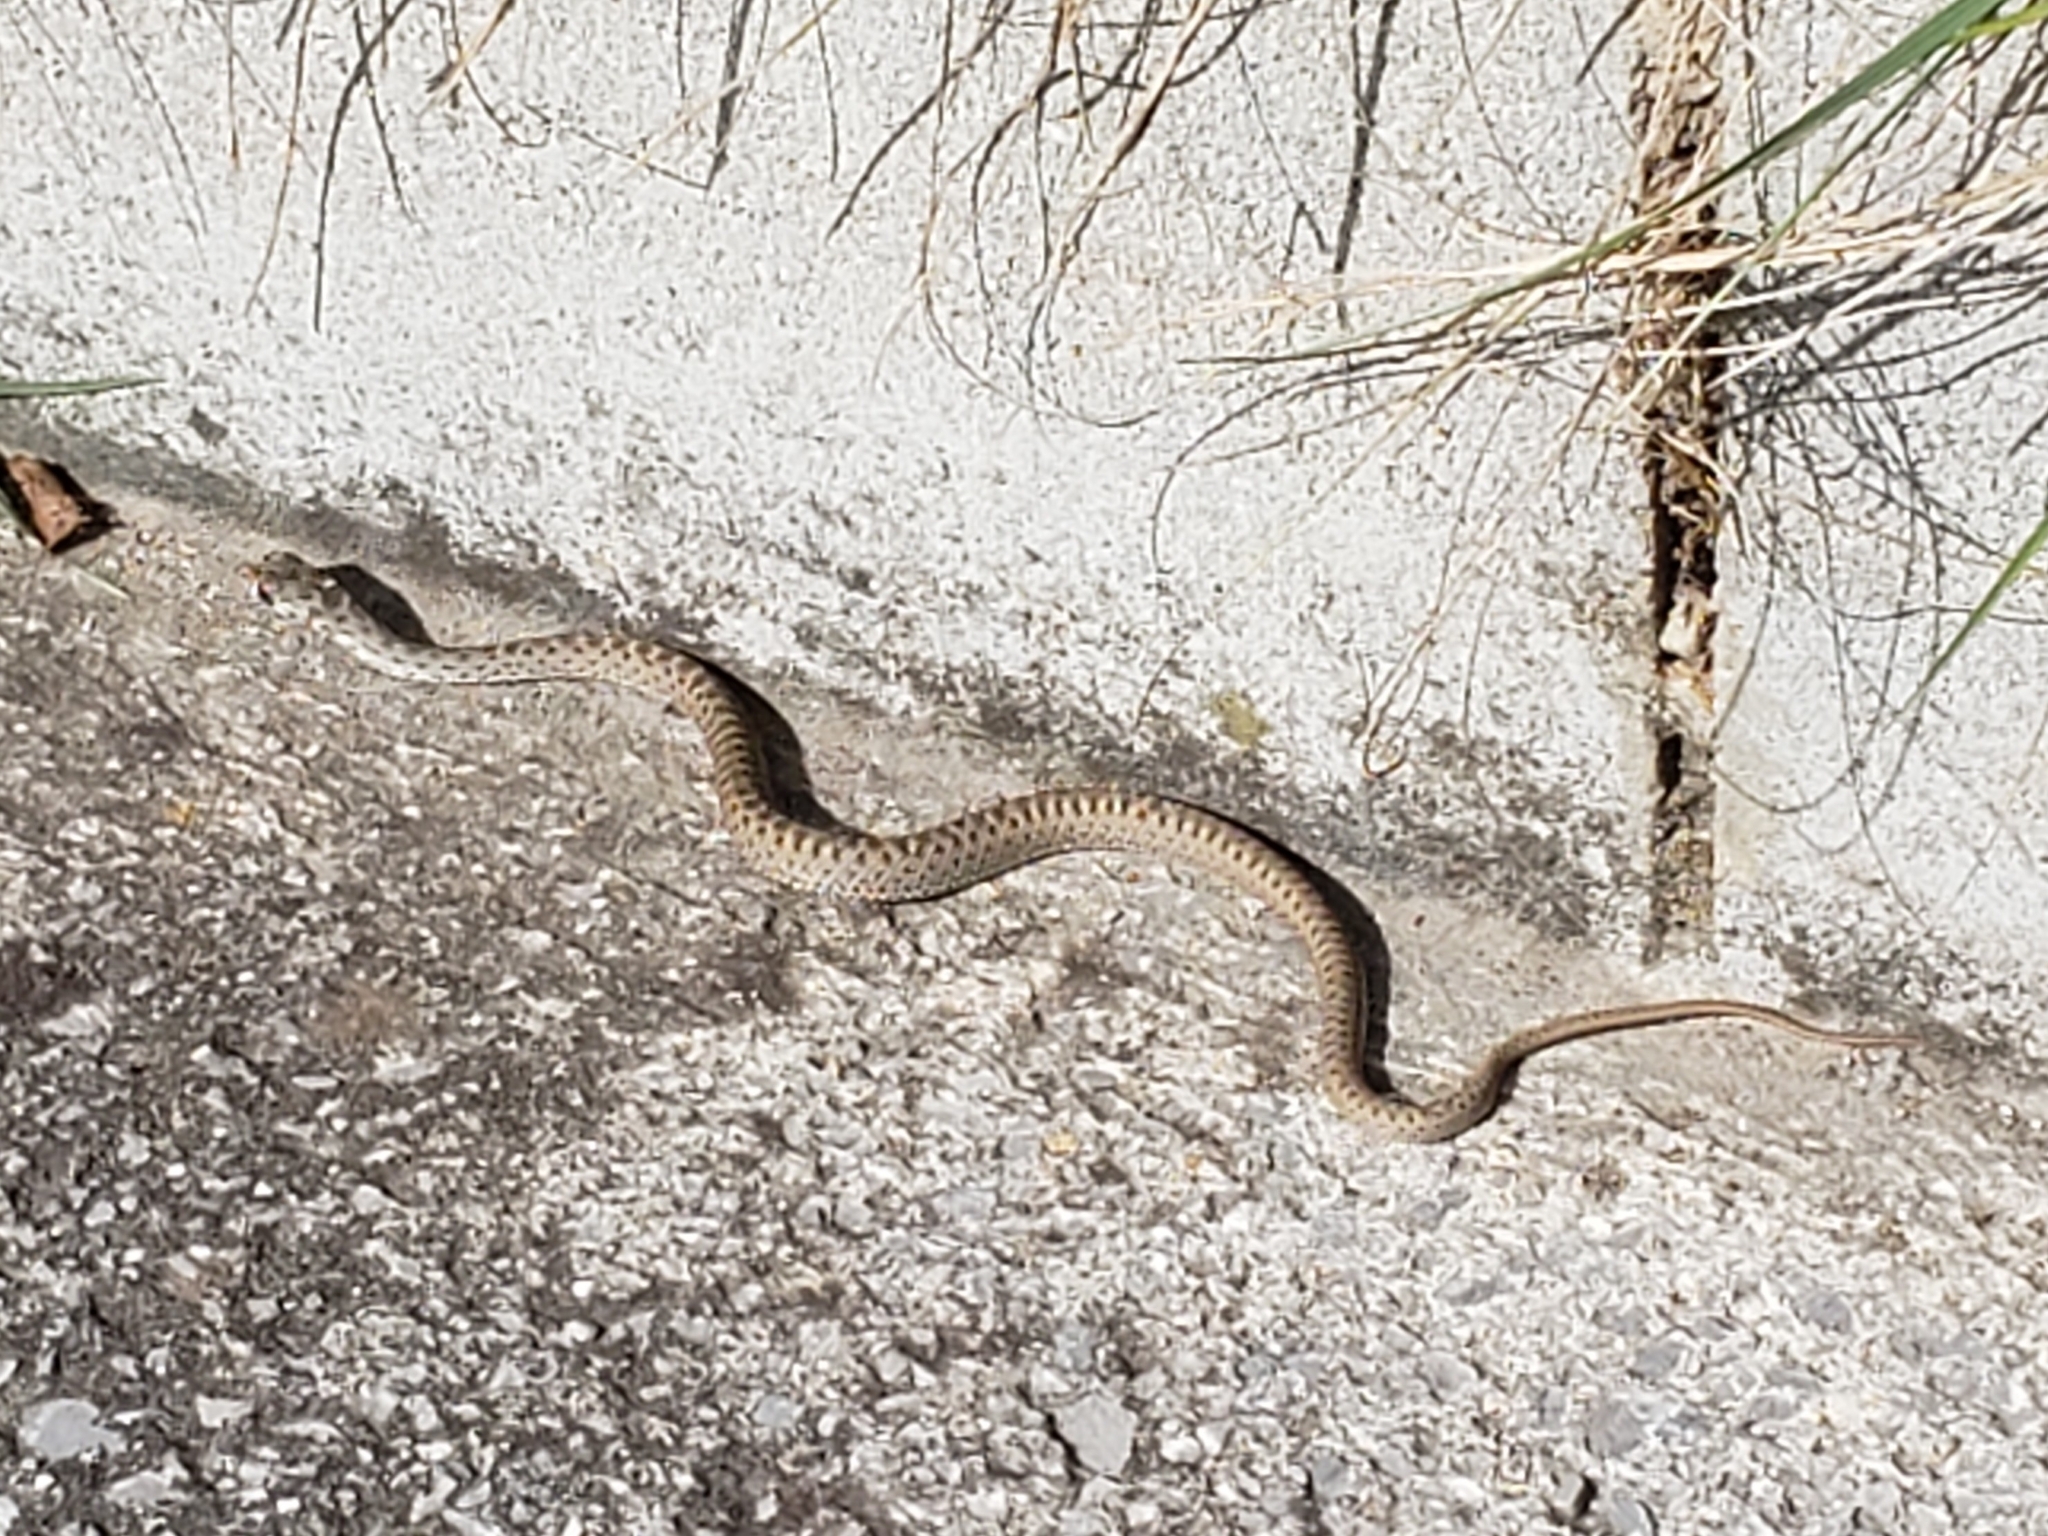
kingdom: Animalia
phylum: Chordata
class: Squamata
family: Psammophiidae
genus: Malpolon
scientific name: Malpolon monspessulanus
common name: Montpellier snake
